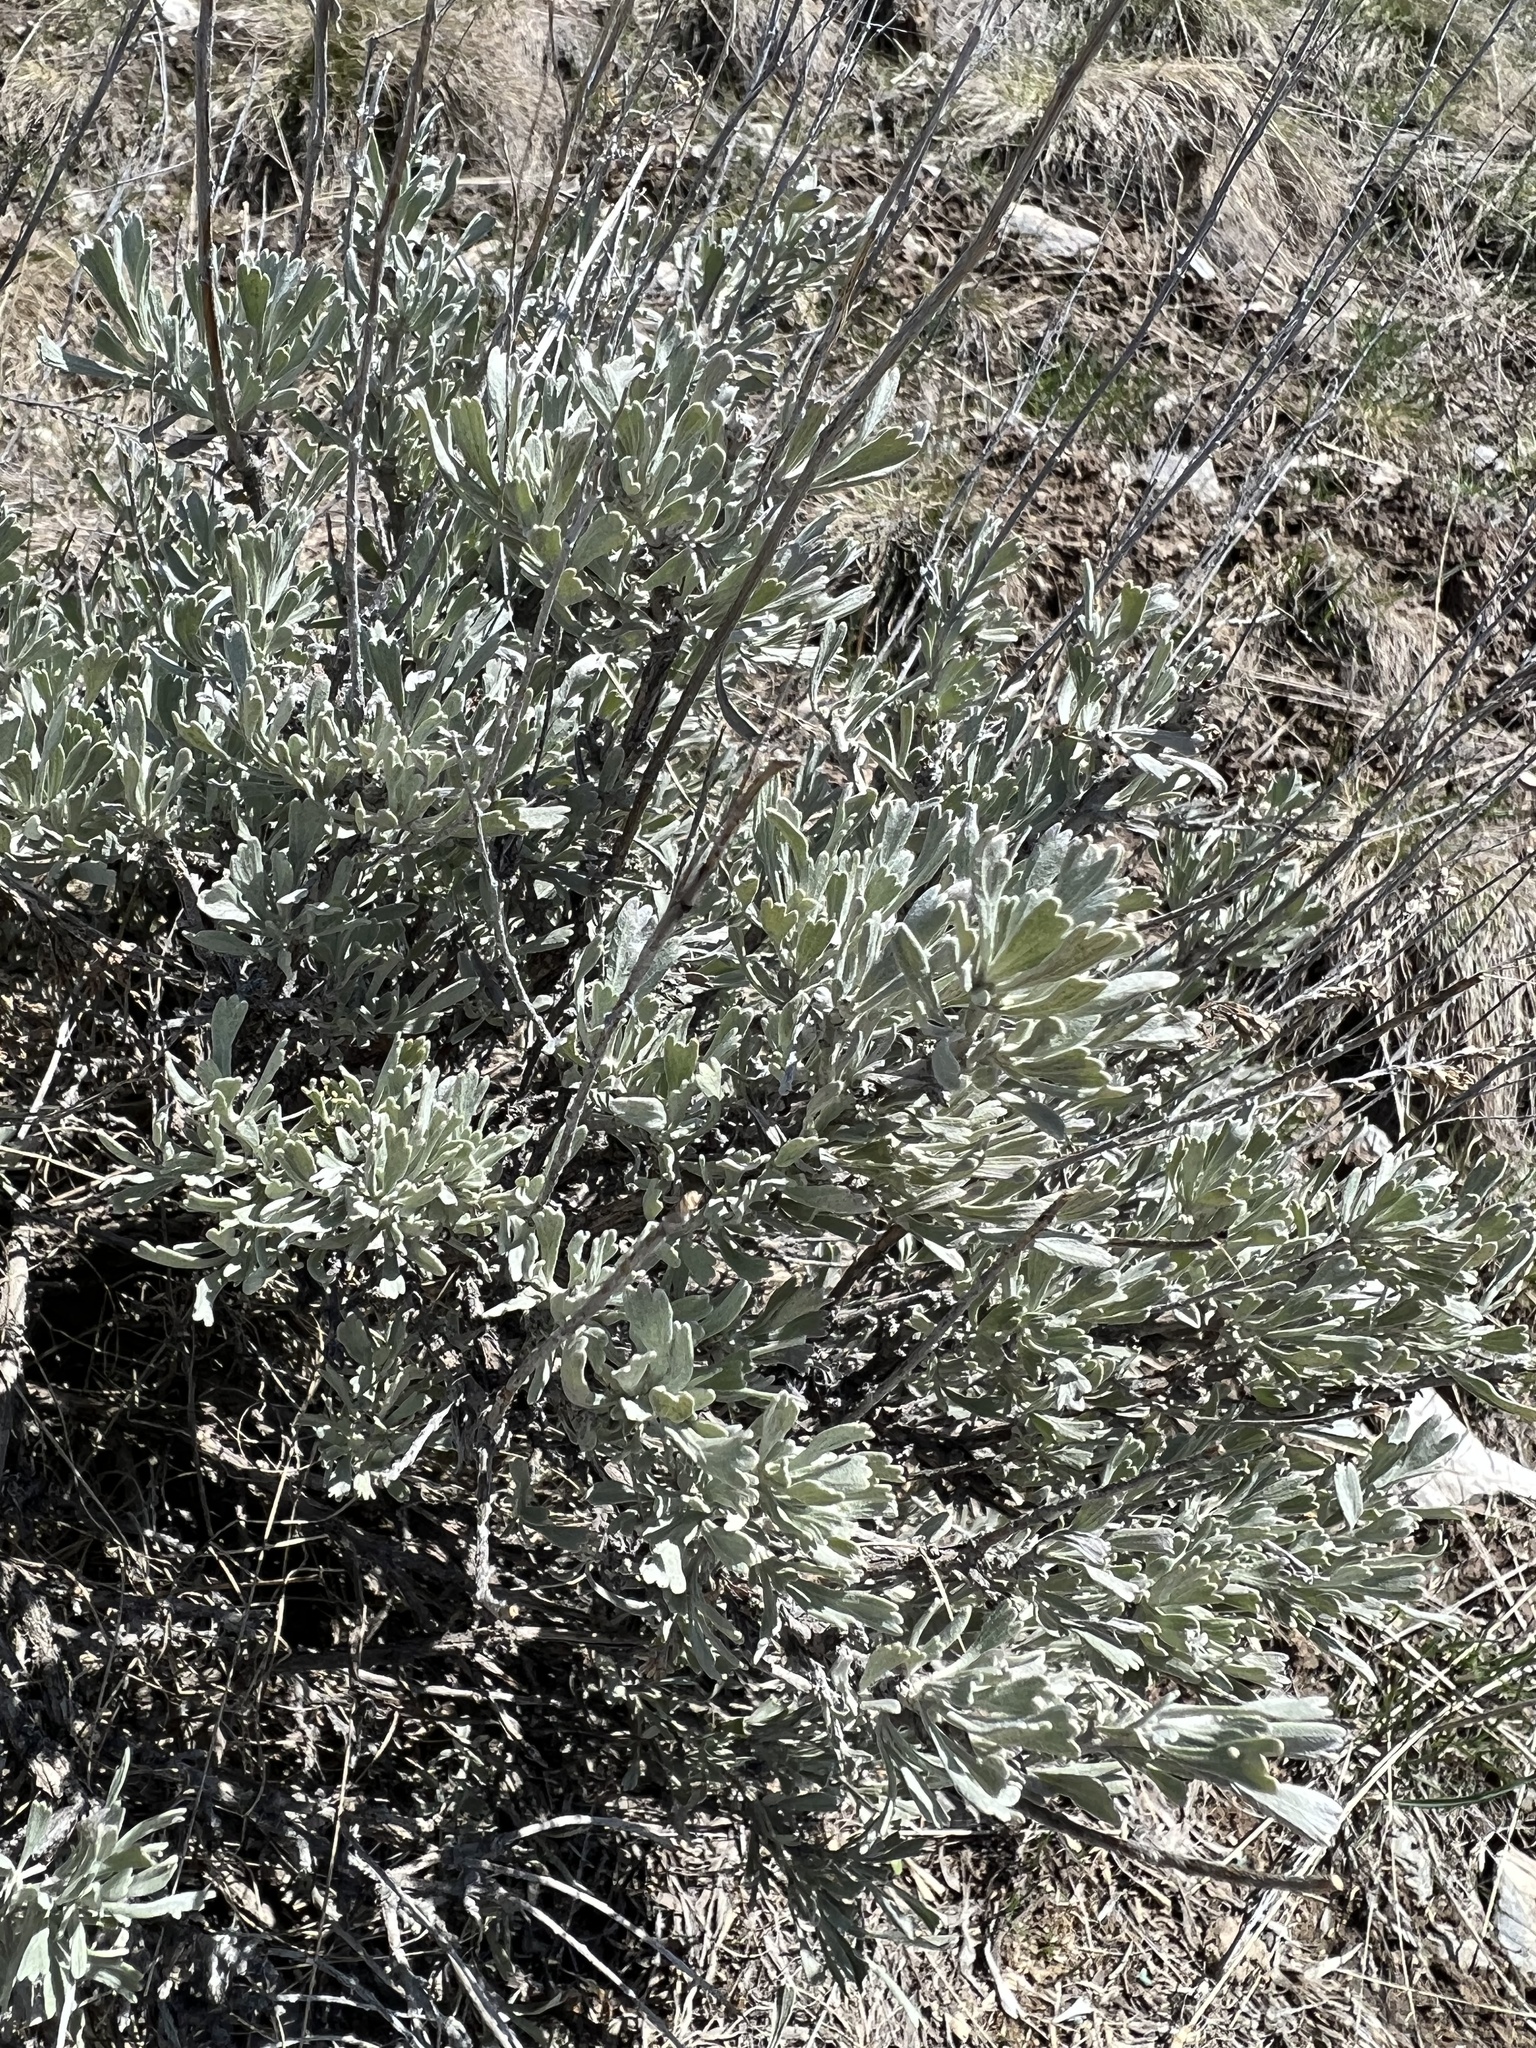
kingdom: Plantae
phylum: Tracheophyta
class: Magnoliopsida
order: Asterales
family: Asteraceae
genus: Artemisia
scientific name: Artemisia tridentata
